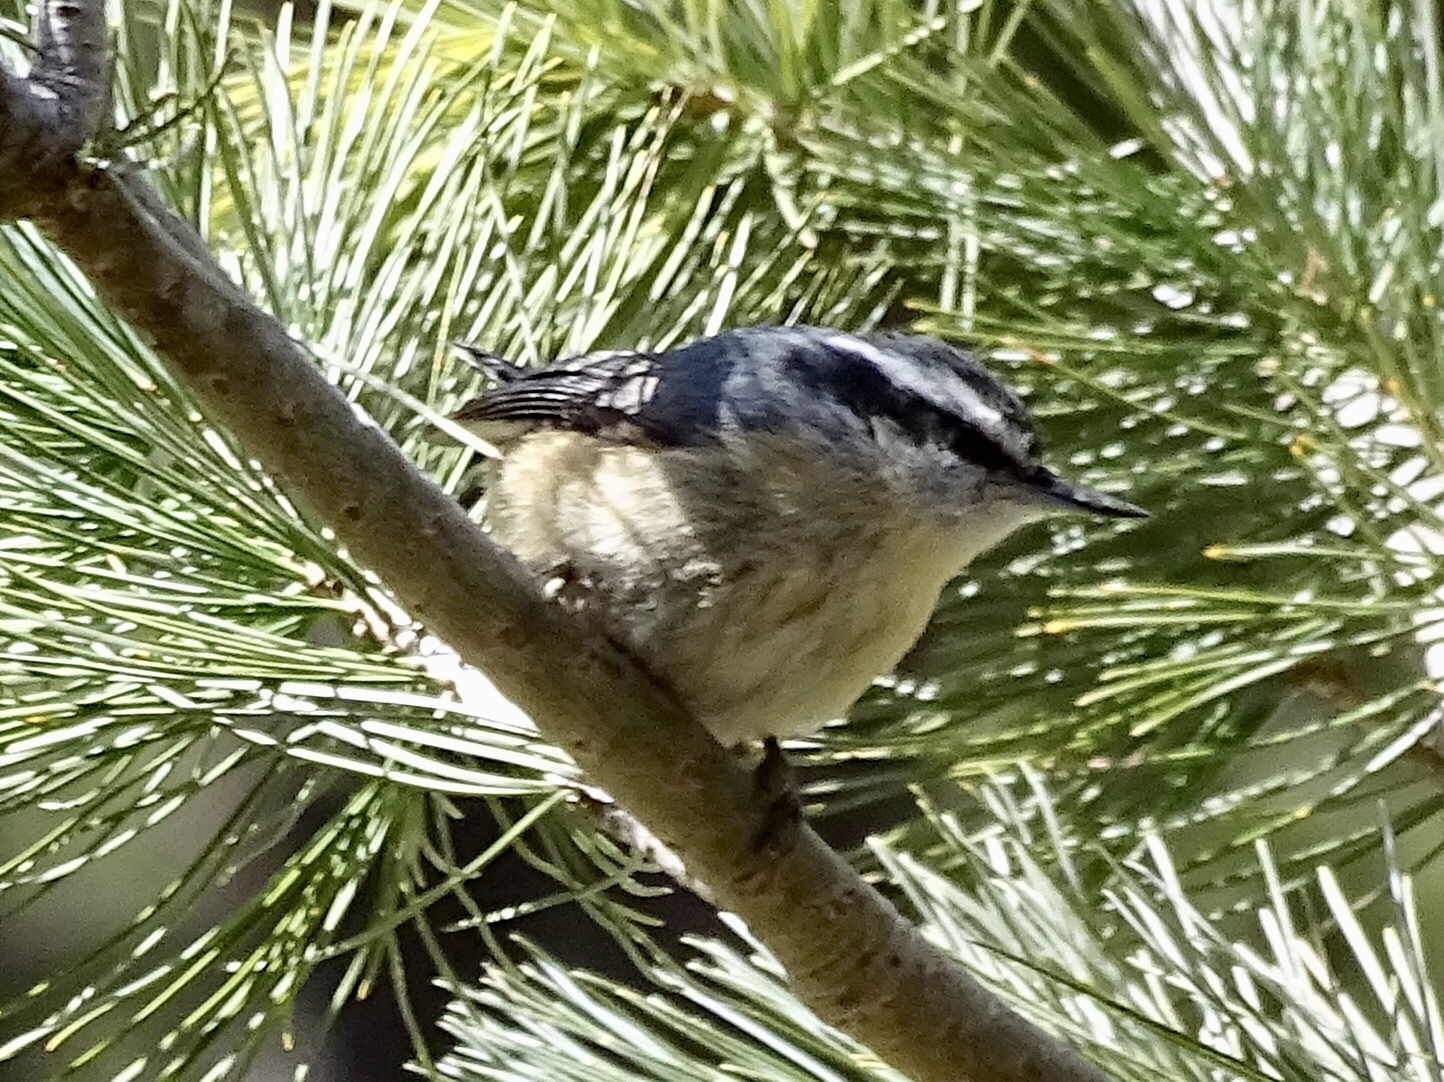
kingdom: Animalia
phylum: Chordata
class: Aves
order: Passeriformes
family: Sittidae
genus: Sitta
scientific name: Sitta canadensis
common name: Red-breasted nuthatch
